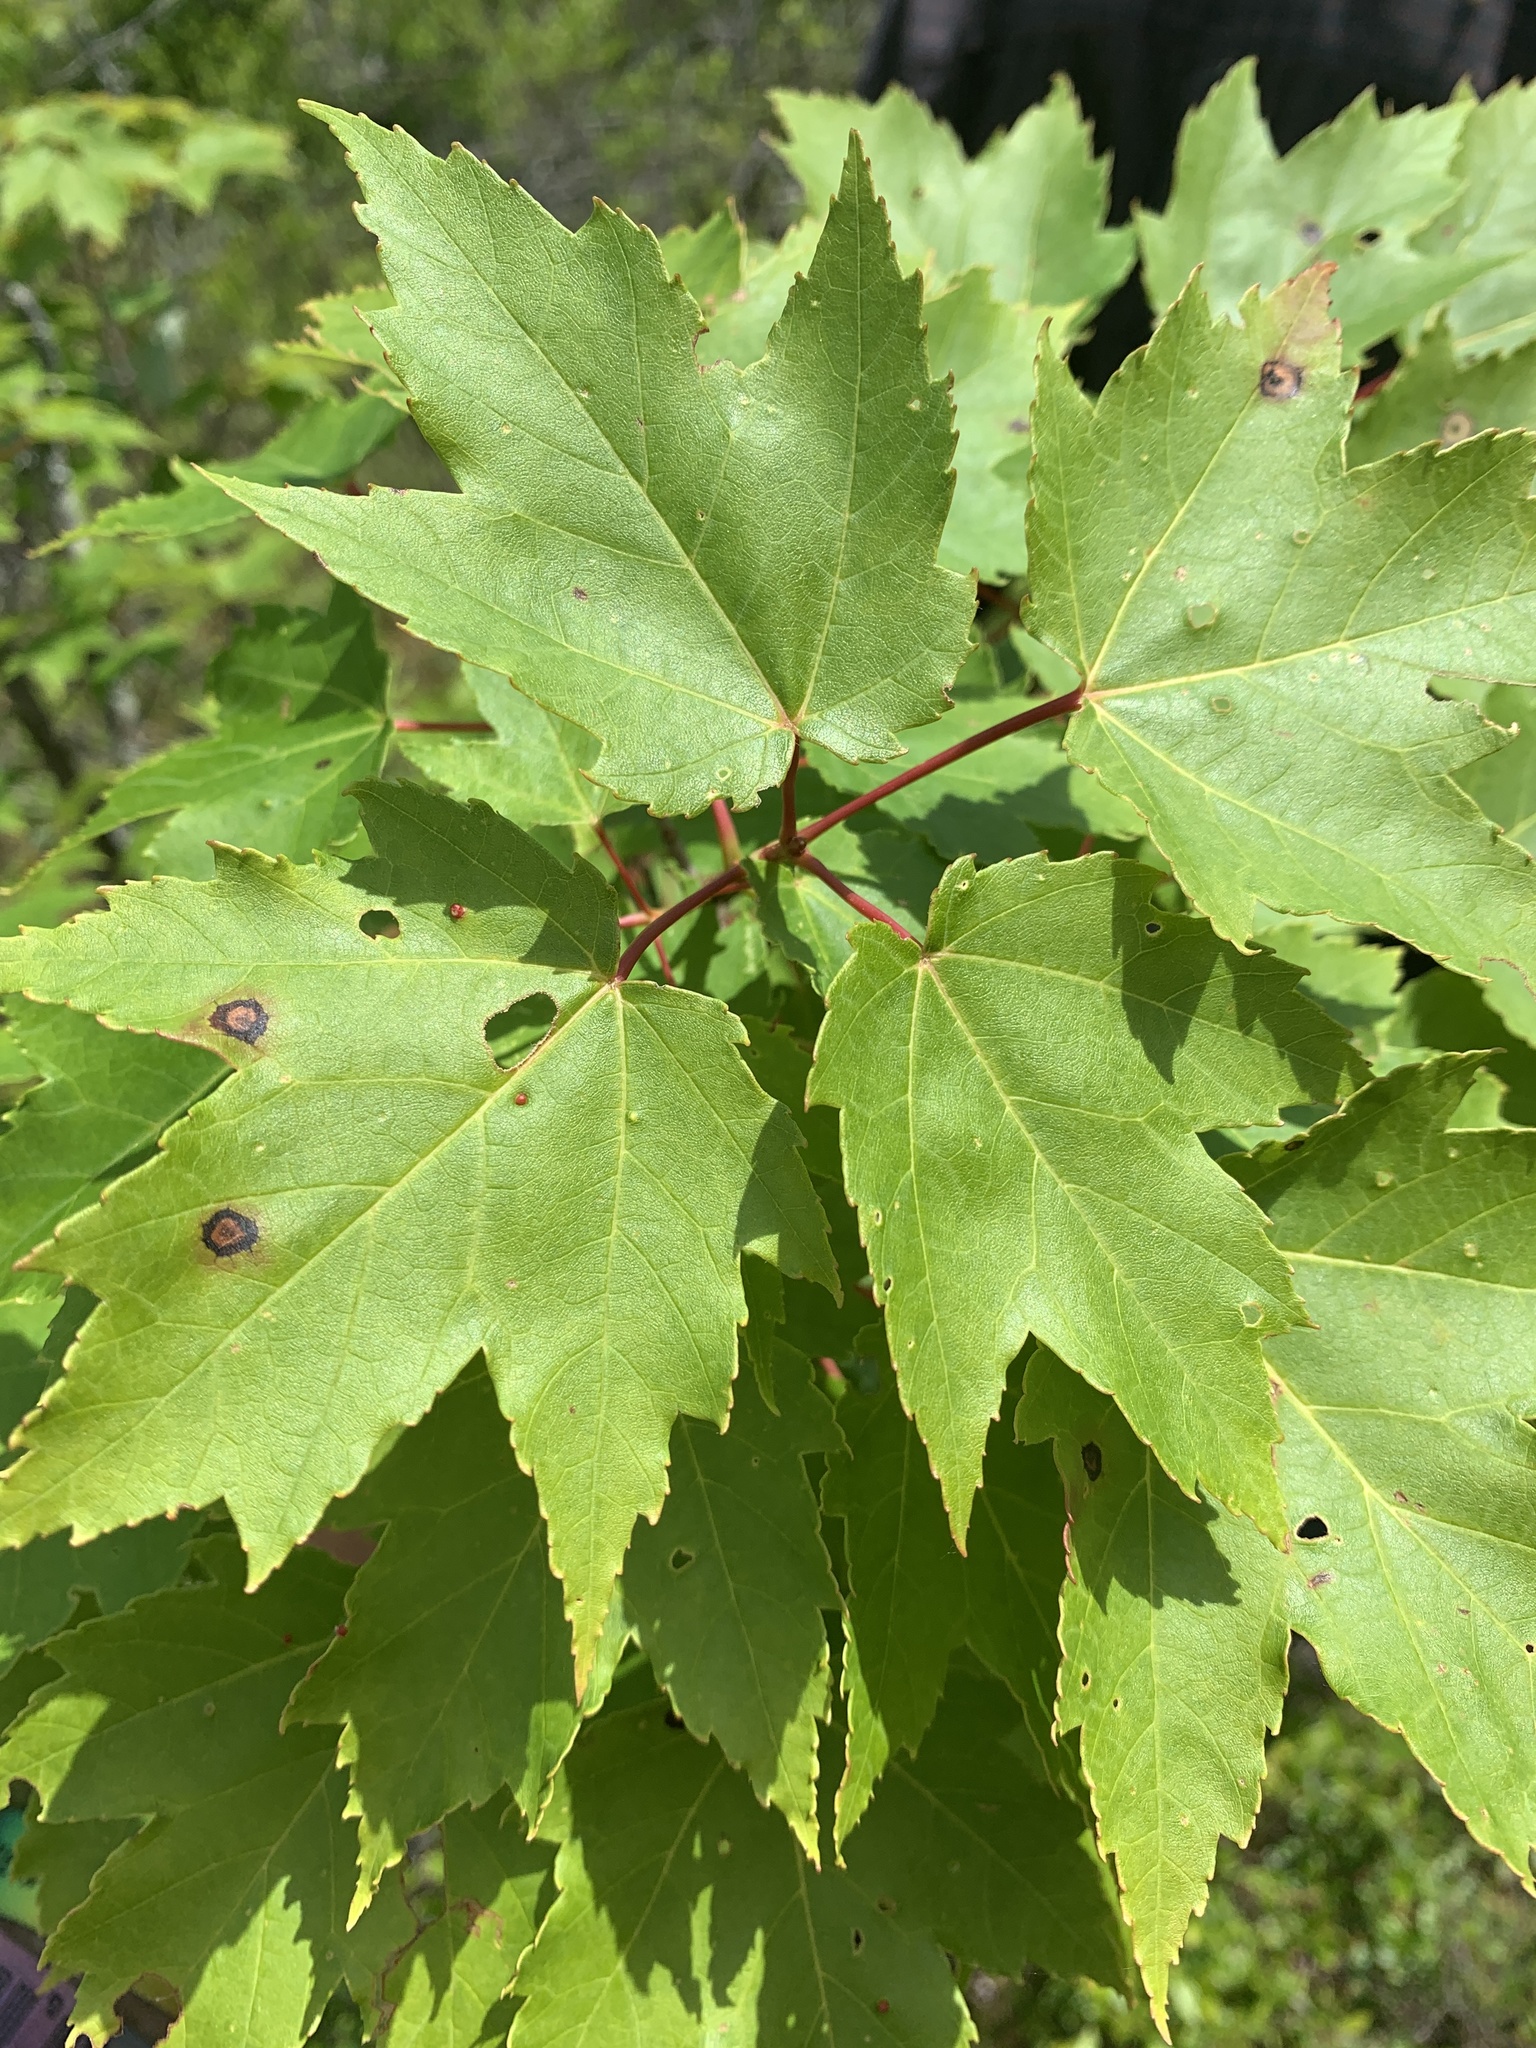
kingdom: Plantae
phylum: Tracheophyta
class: Magnoliopsida
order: Sapindales
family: Sapindaceae
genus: Acer
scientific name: Acer rubrum
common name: Red maple
